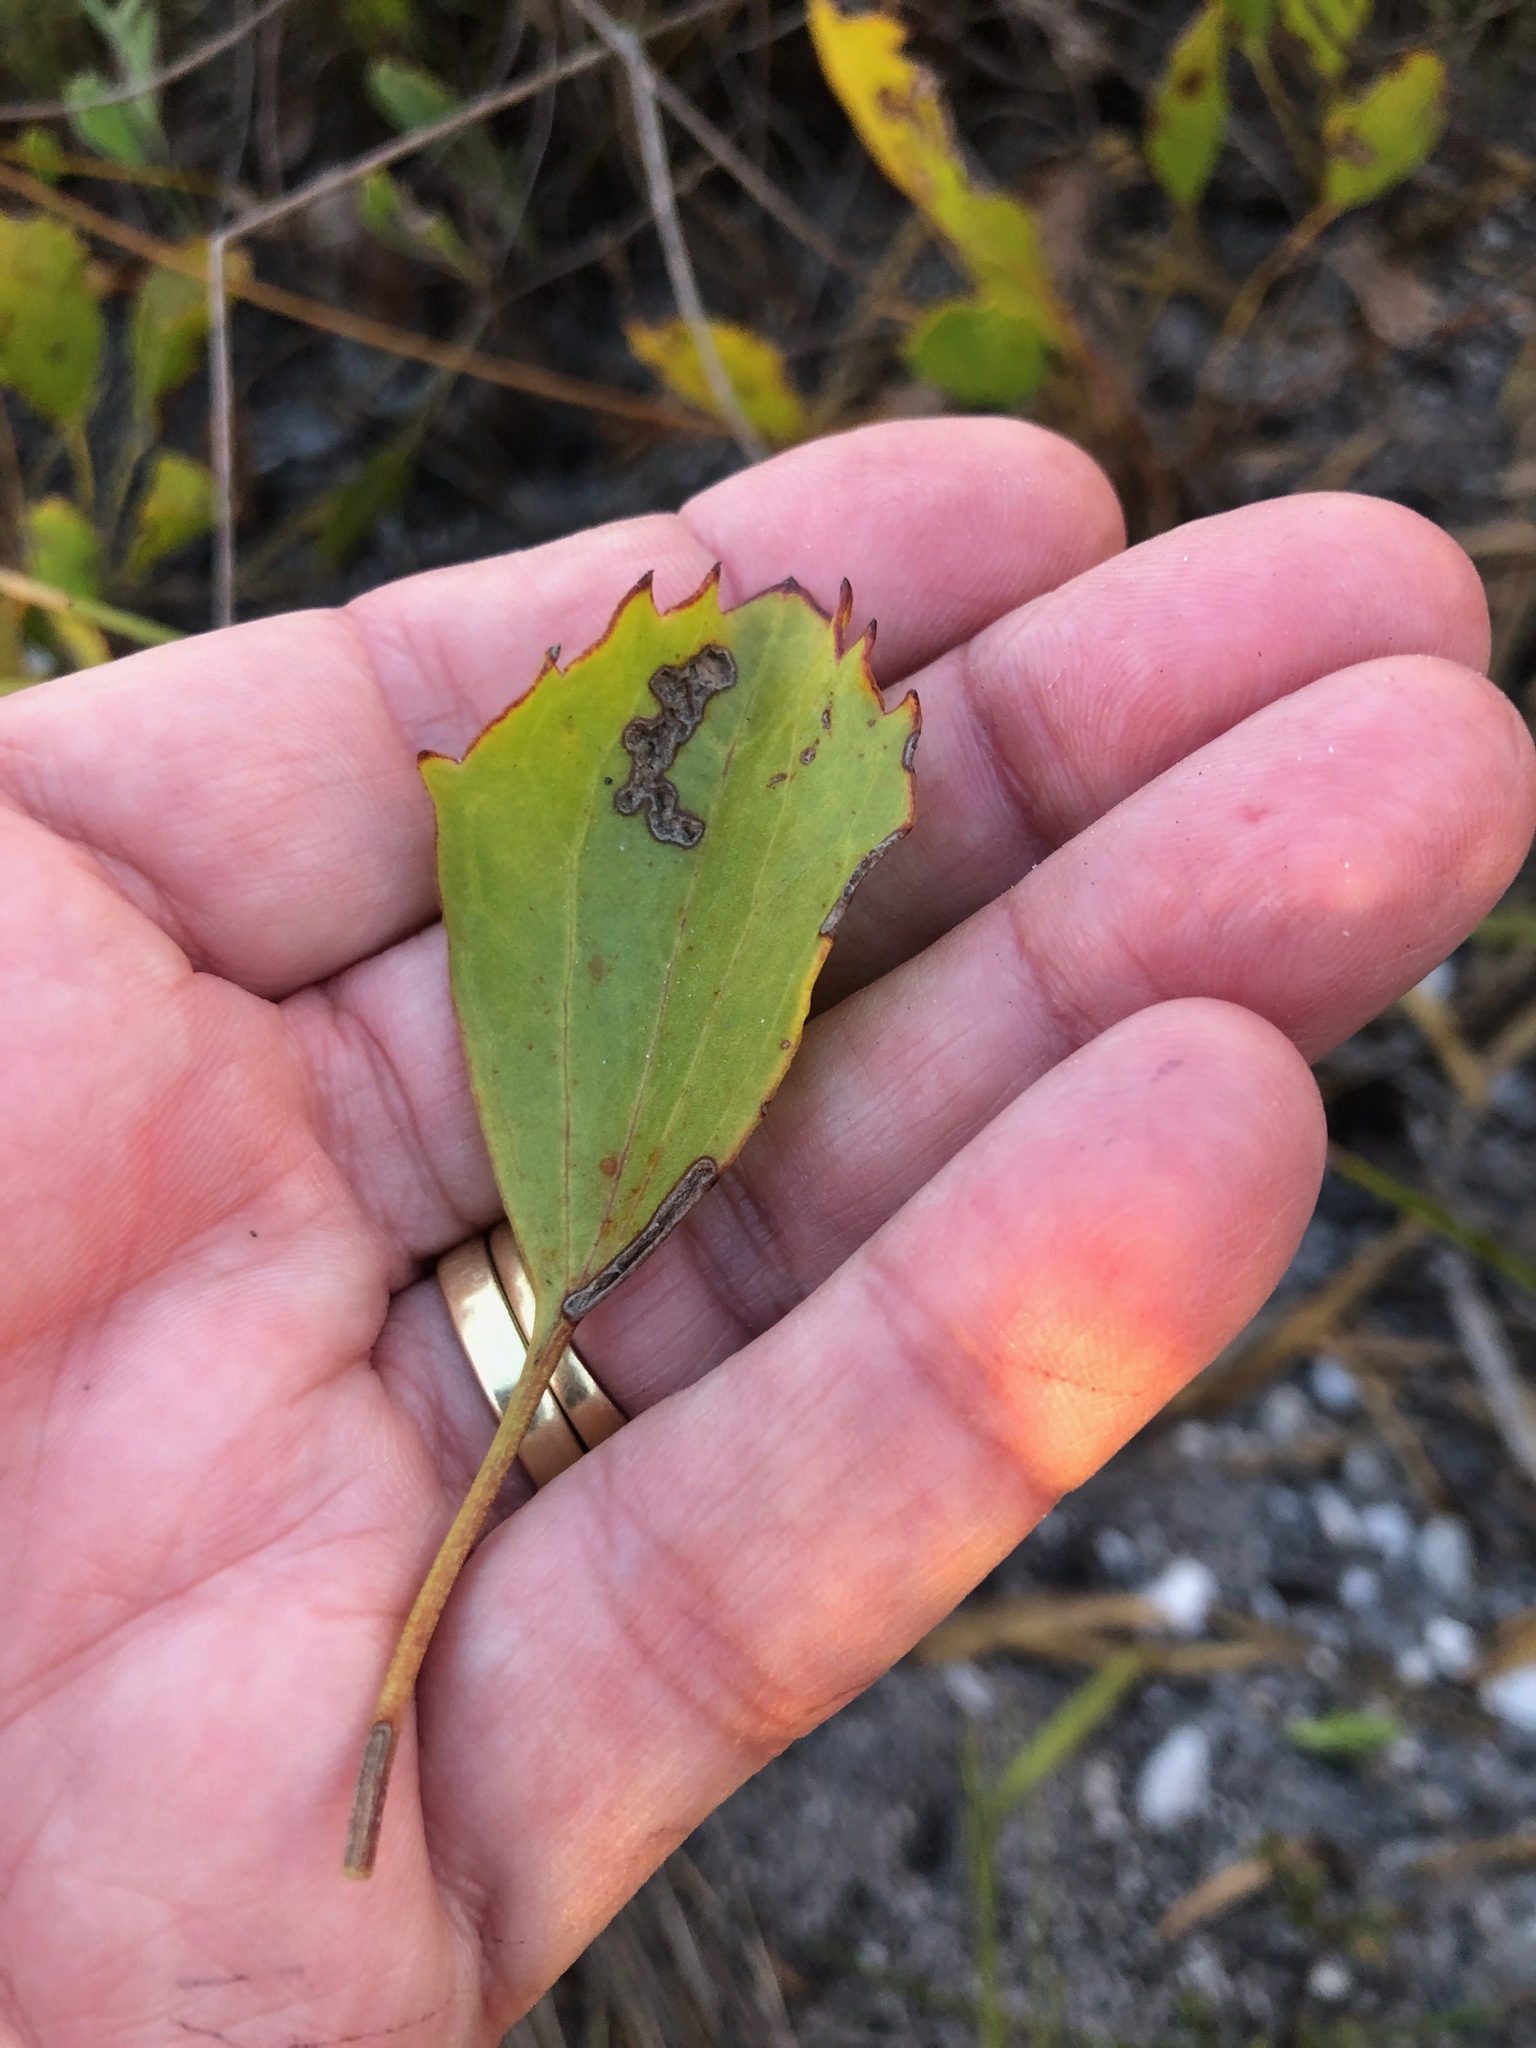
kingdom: Plantae
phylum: Tracheophyta
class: Magnoliopsida
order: Apiales
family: Apiaceae
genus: Centella
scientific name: Centella difformis
